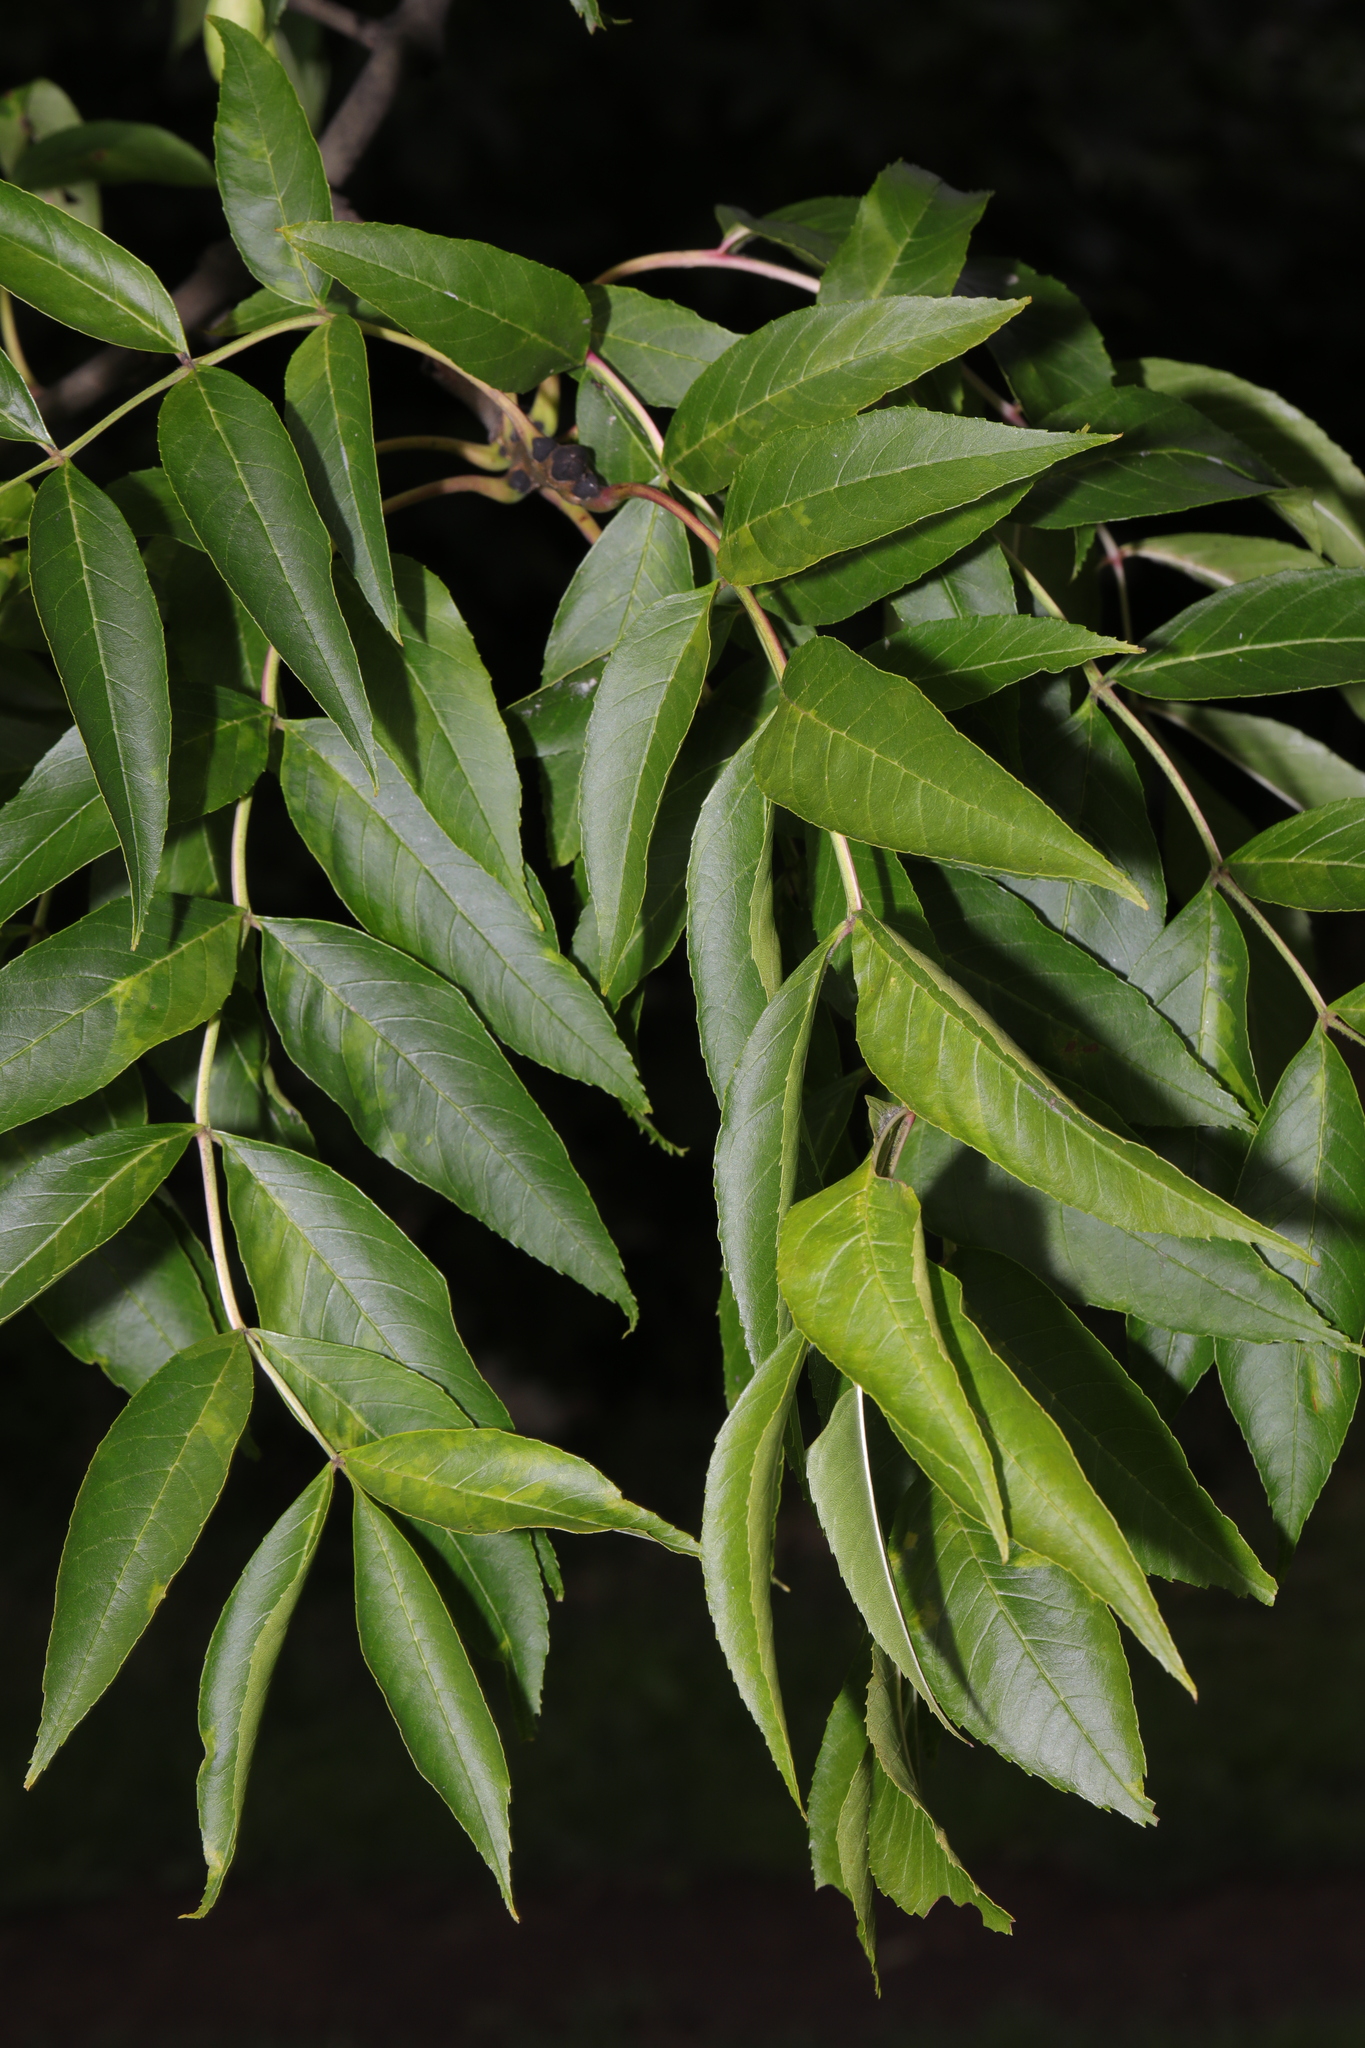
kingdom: Plantae
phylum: Tracheophyta
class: Magnoliopsida
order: Lamiales
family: Oleaceae
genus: Fraxinus
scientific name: Fraxinus excelsior
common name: European ash
